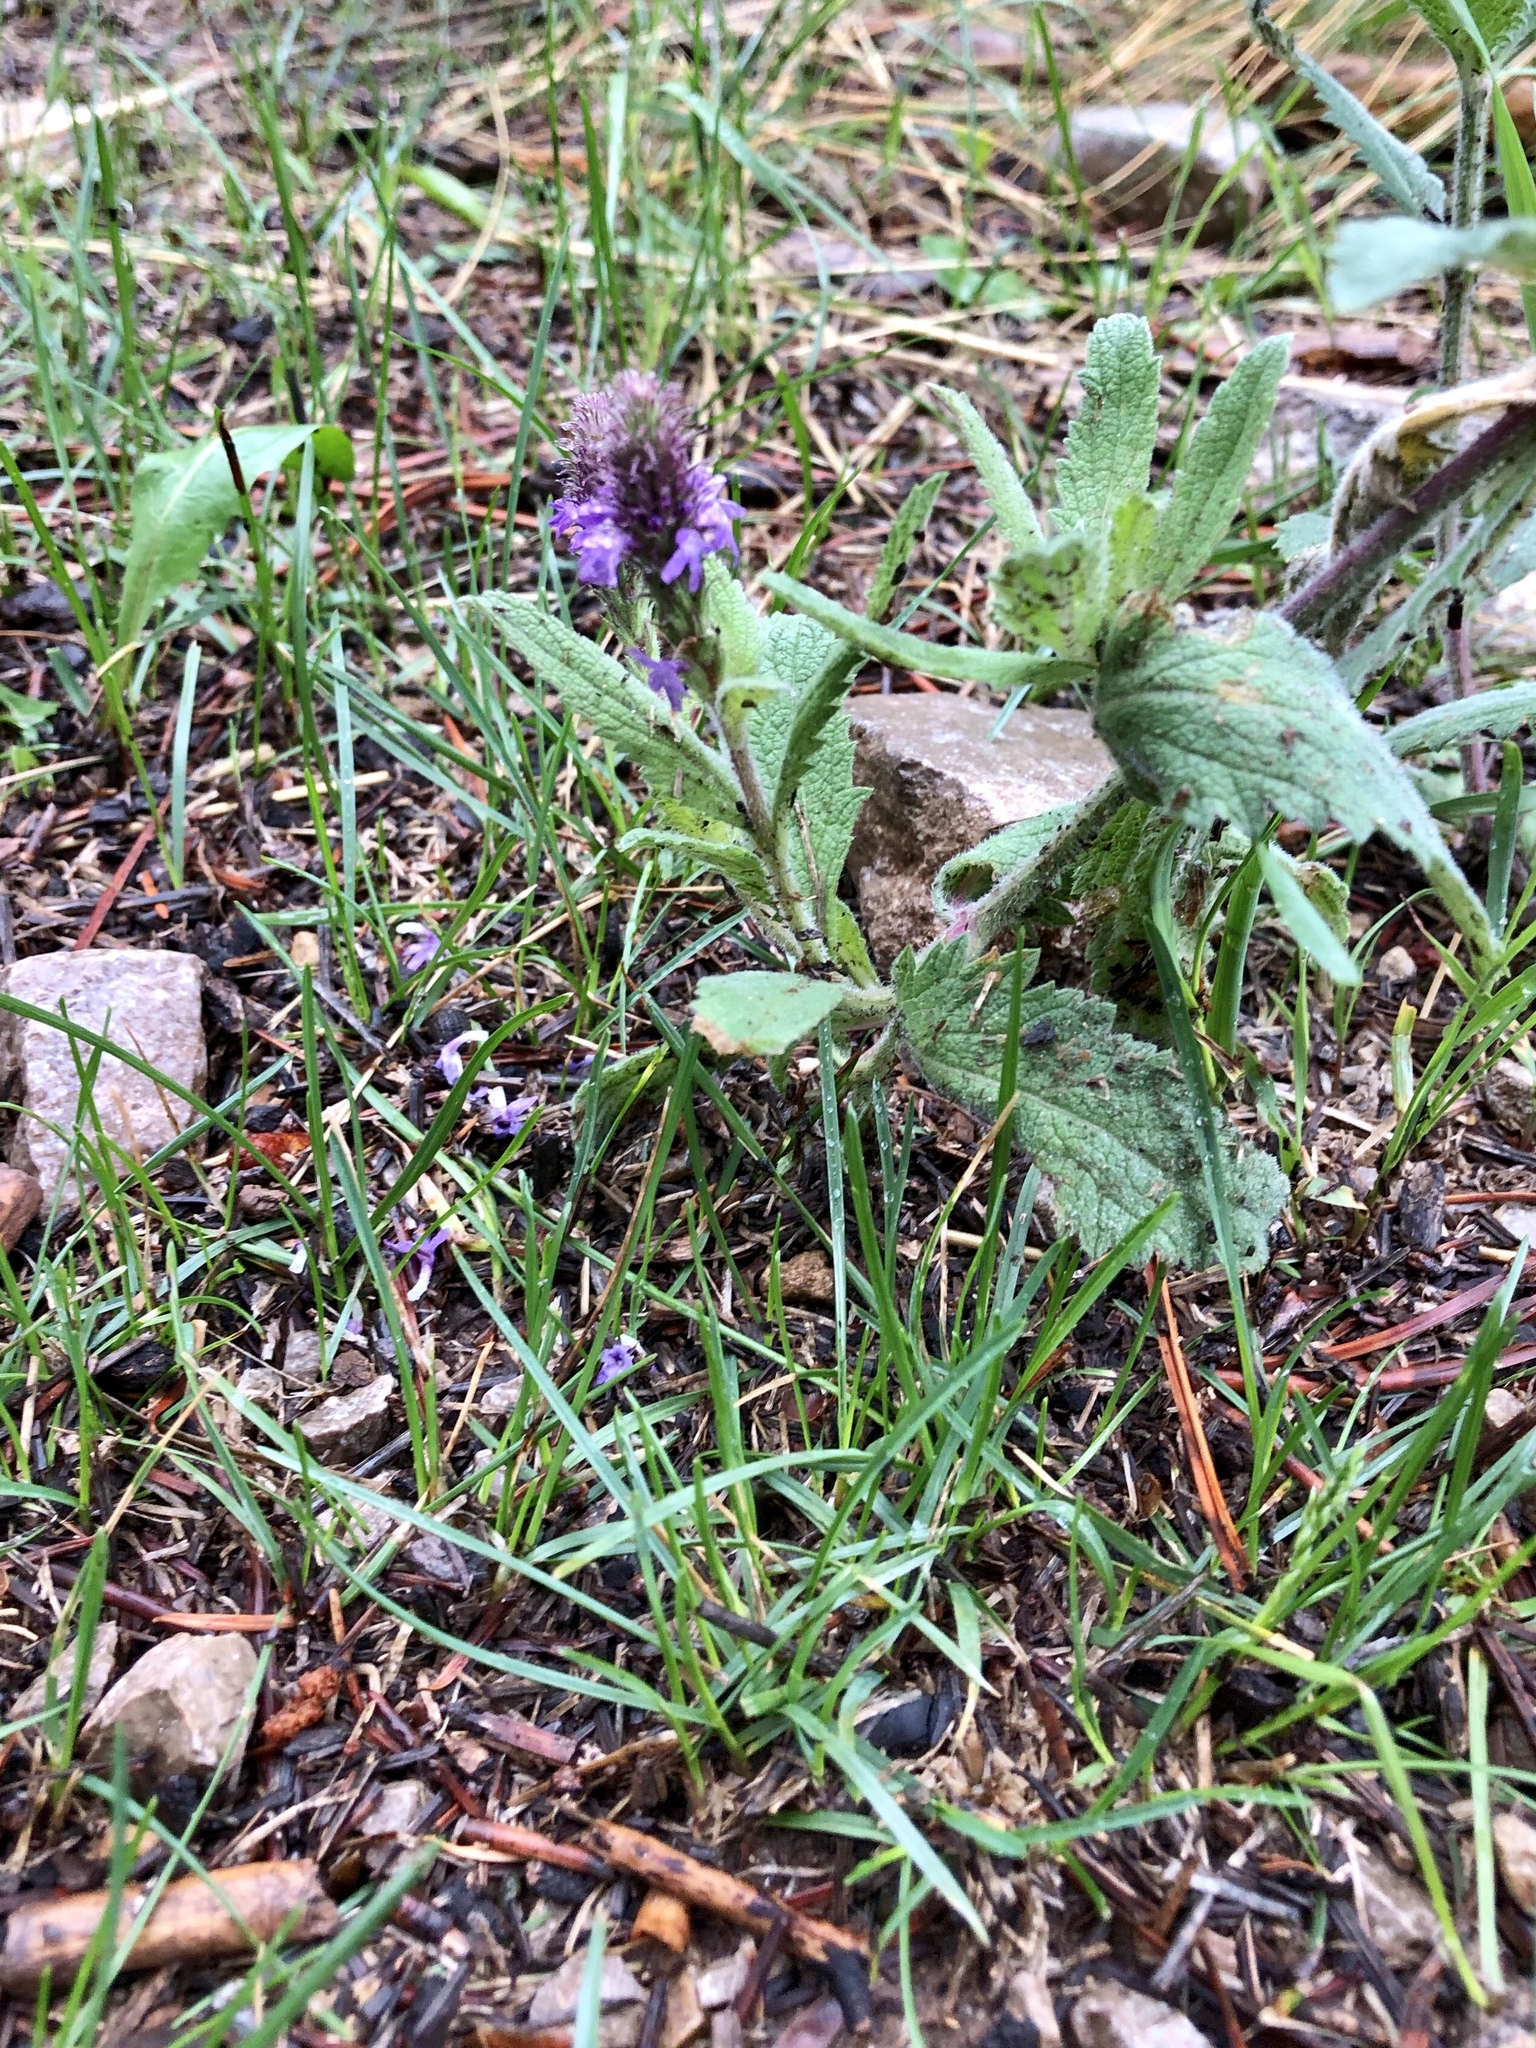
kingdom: Plantae
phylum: Tracheophyta
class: Magnoliopsida
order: Lamiales
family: Verbenaceae
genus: Verbena
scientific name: Verbena macdougalii
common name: New mexico vervain
